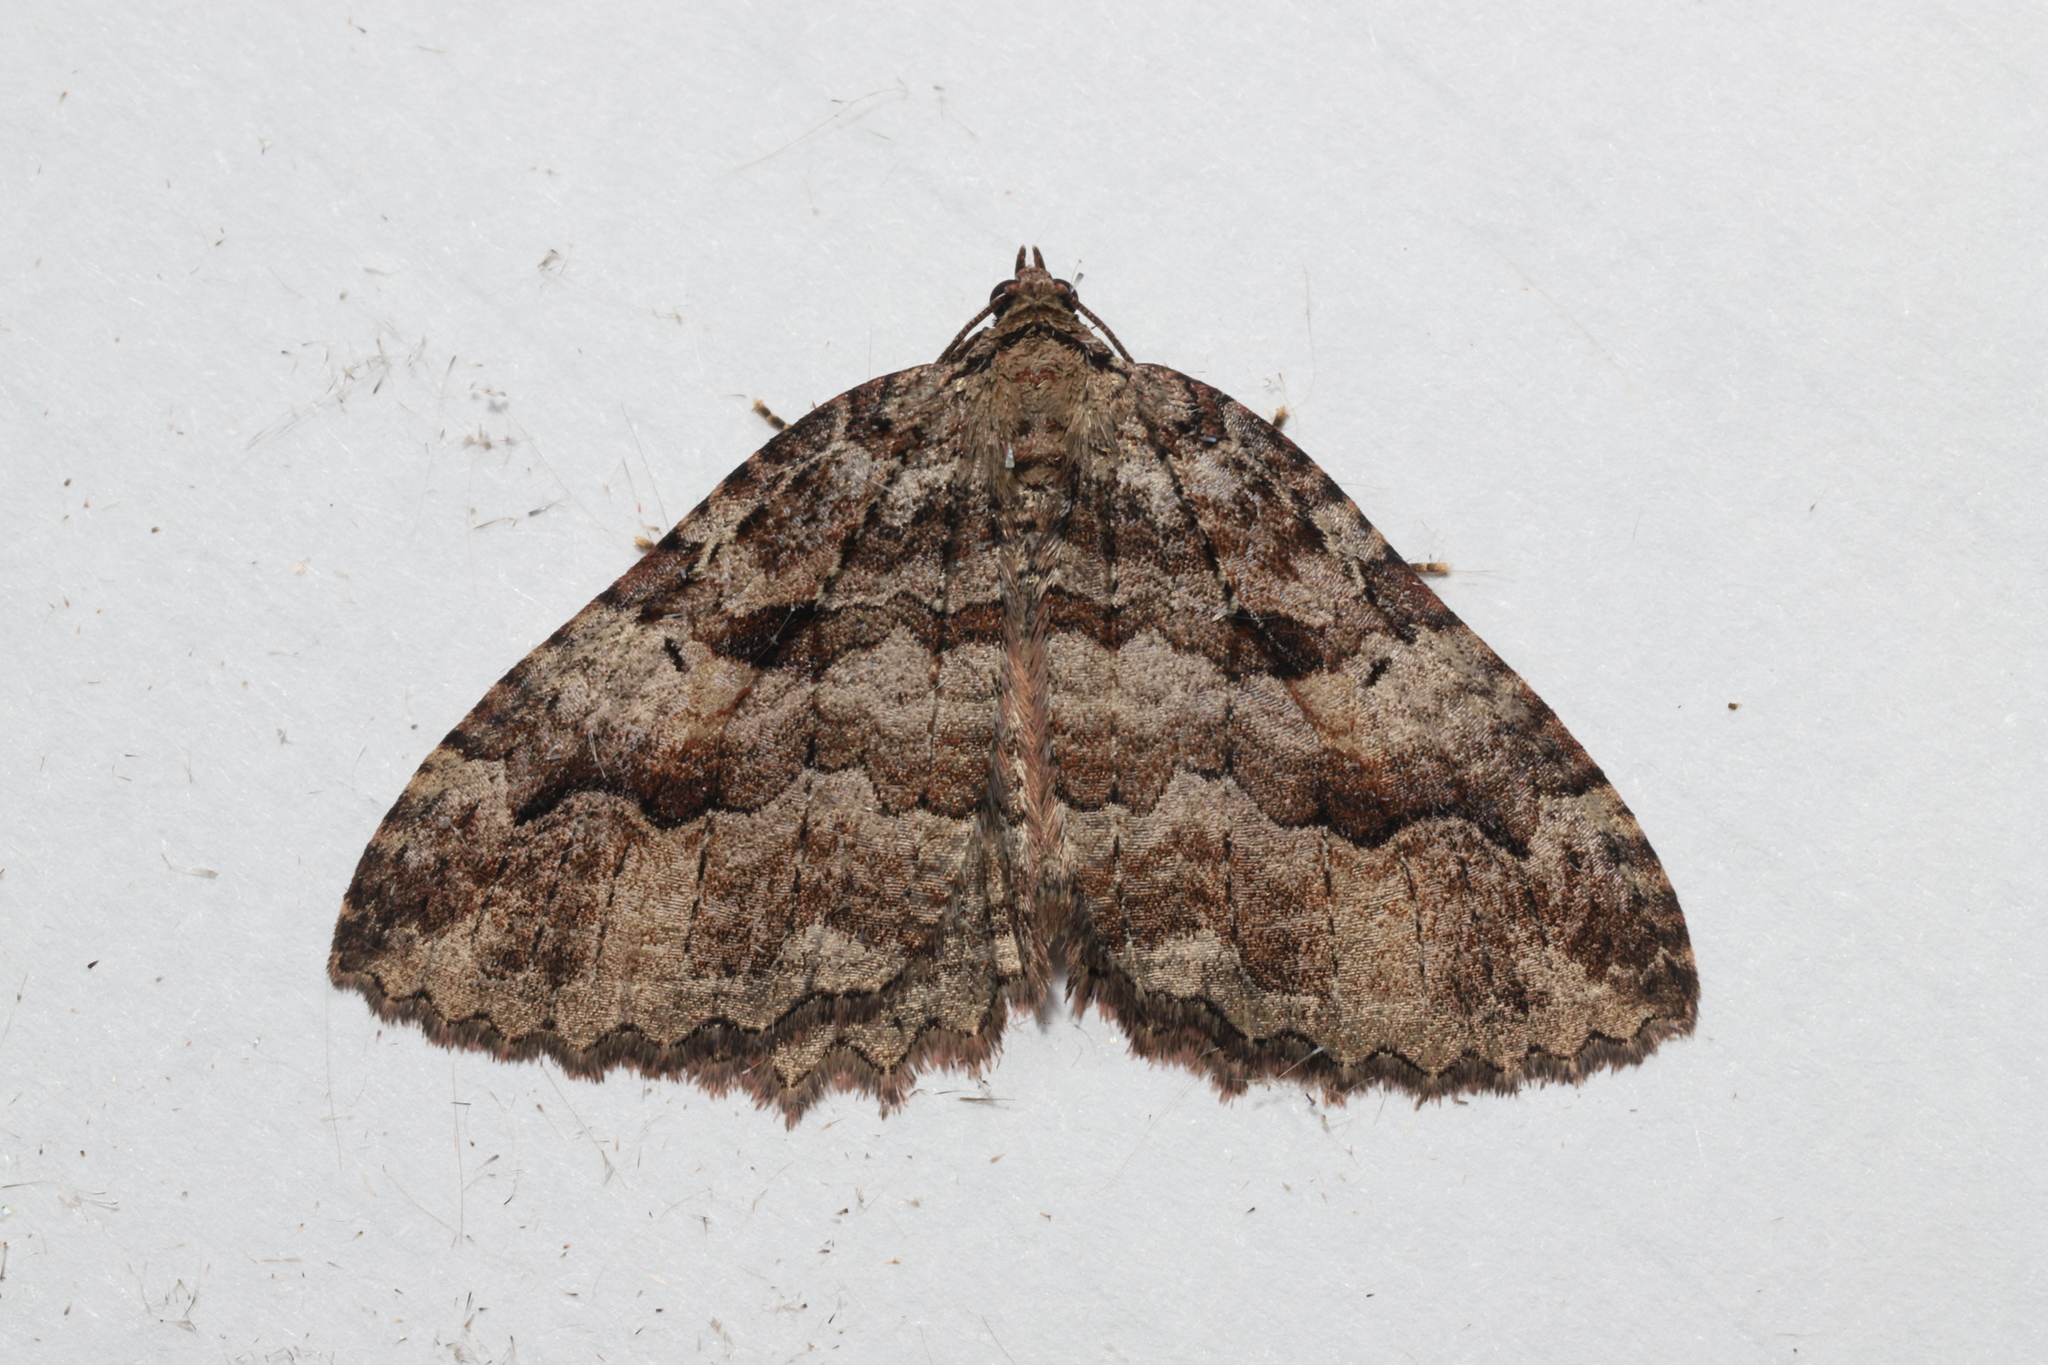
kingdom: Animalia
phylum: Arthropoda
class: Insecta
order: Lepidoptera
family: Geometridae
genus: Triphosa
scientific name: Triphosa haesitata
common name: Tissue moth
